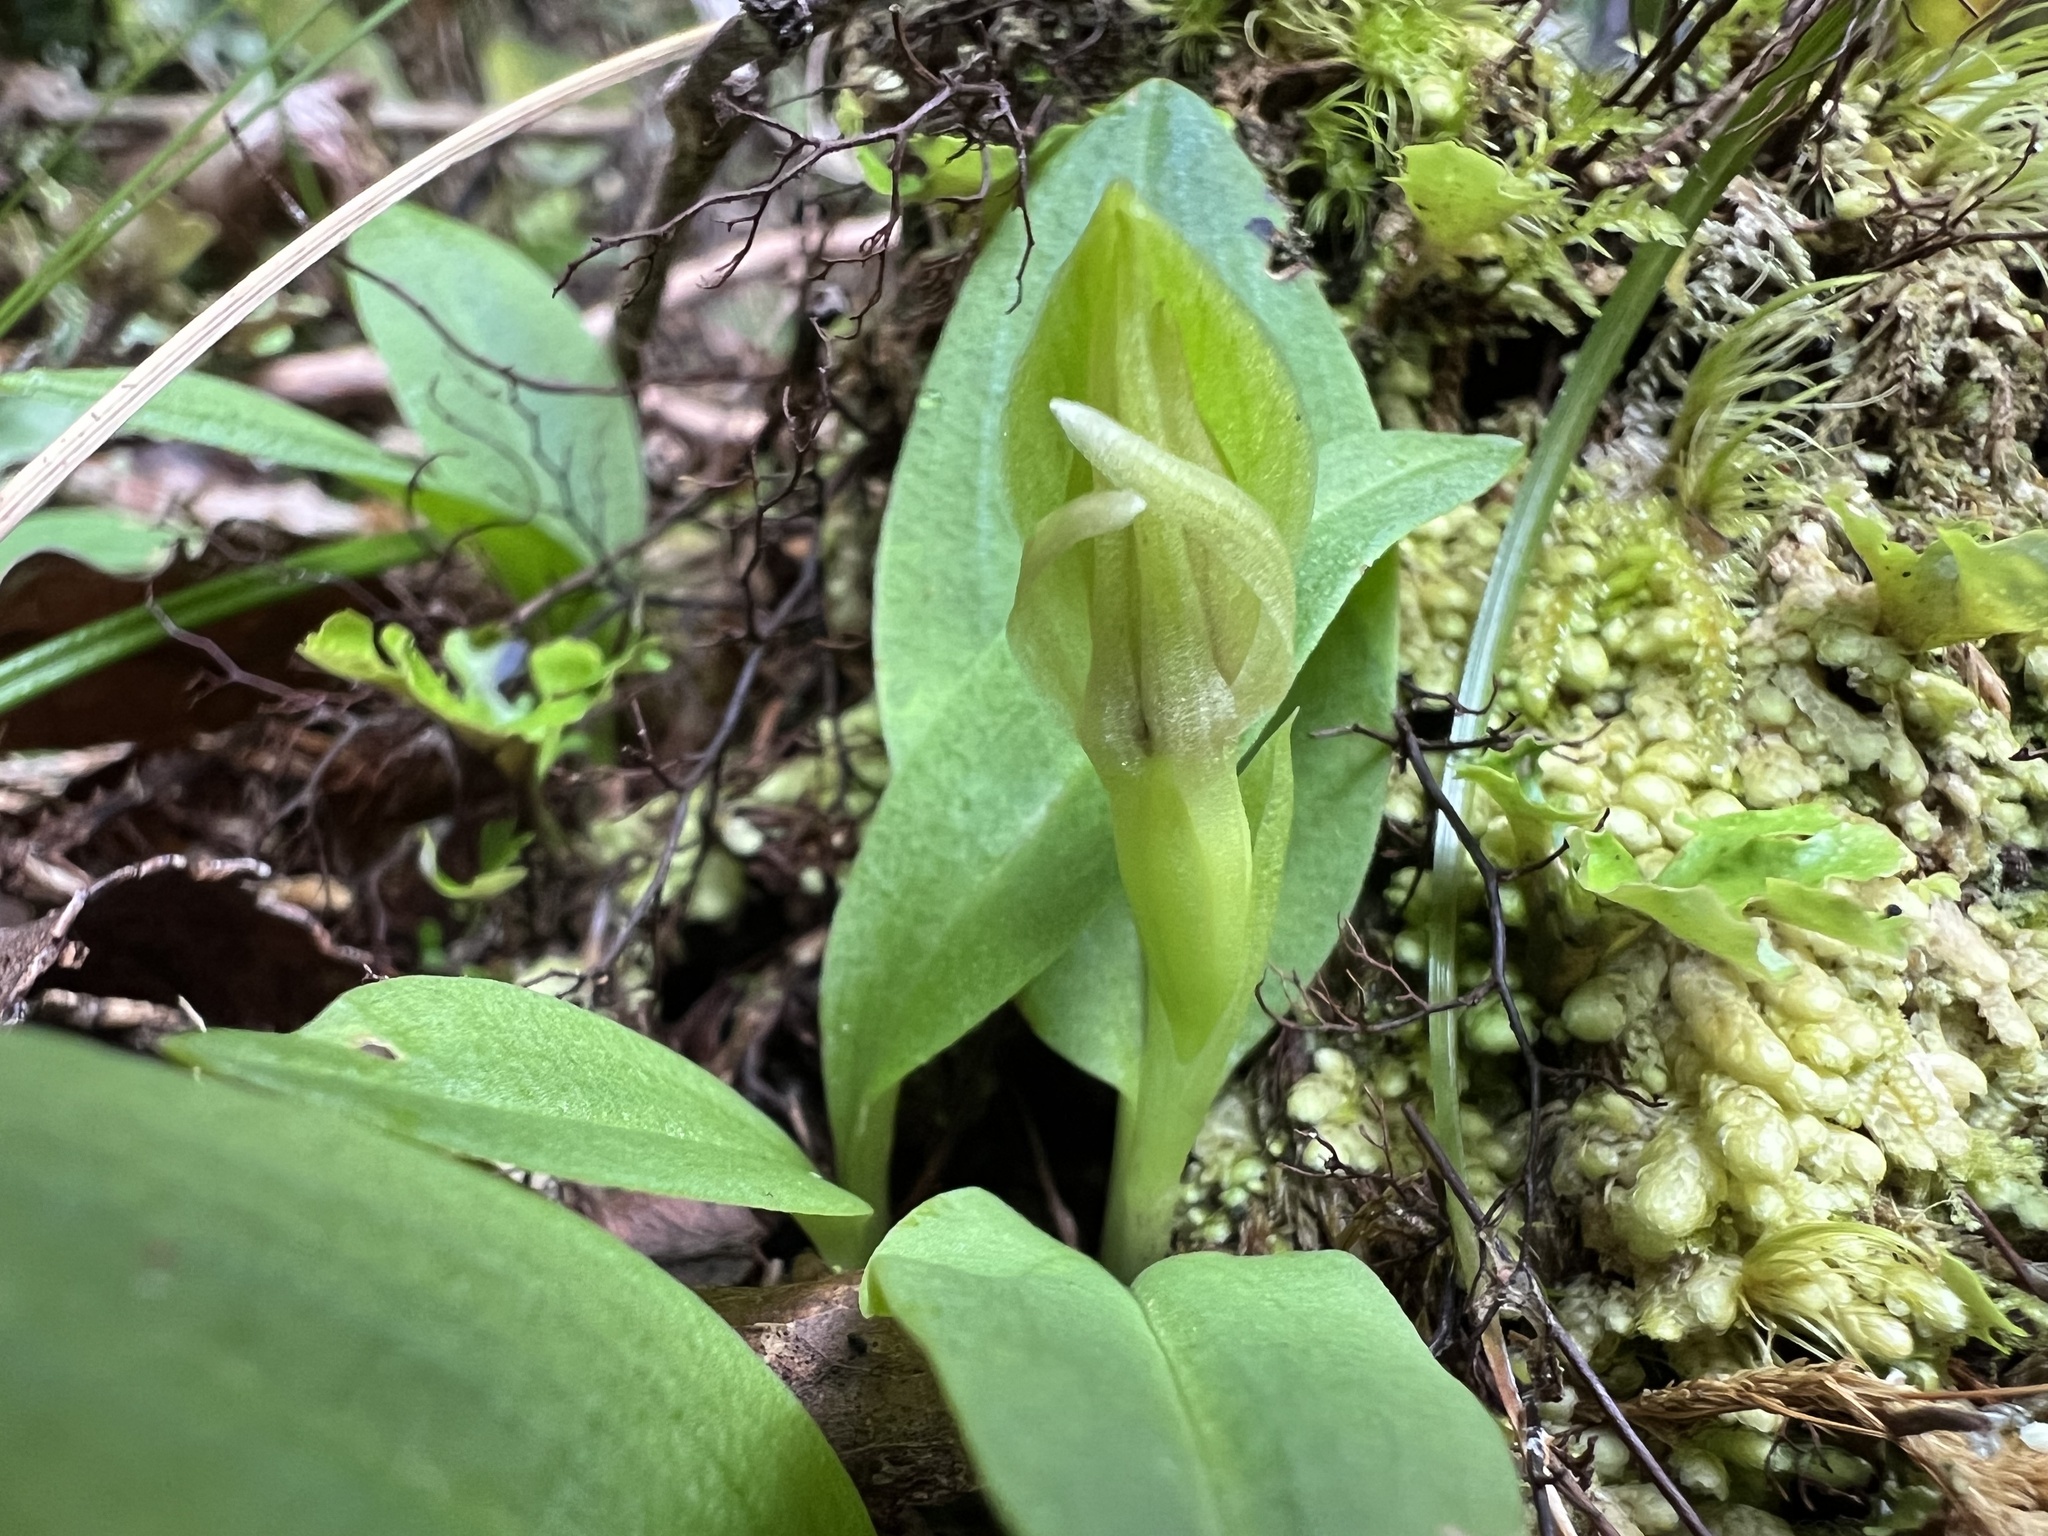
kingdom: Plantae
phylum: Tracheophyta
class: Liliopsida
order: Asparagales
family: Orchidaceae
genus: Chiloglottis
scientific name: Chiloglottis cornuta
